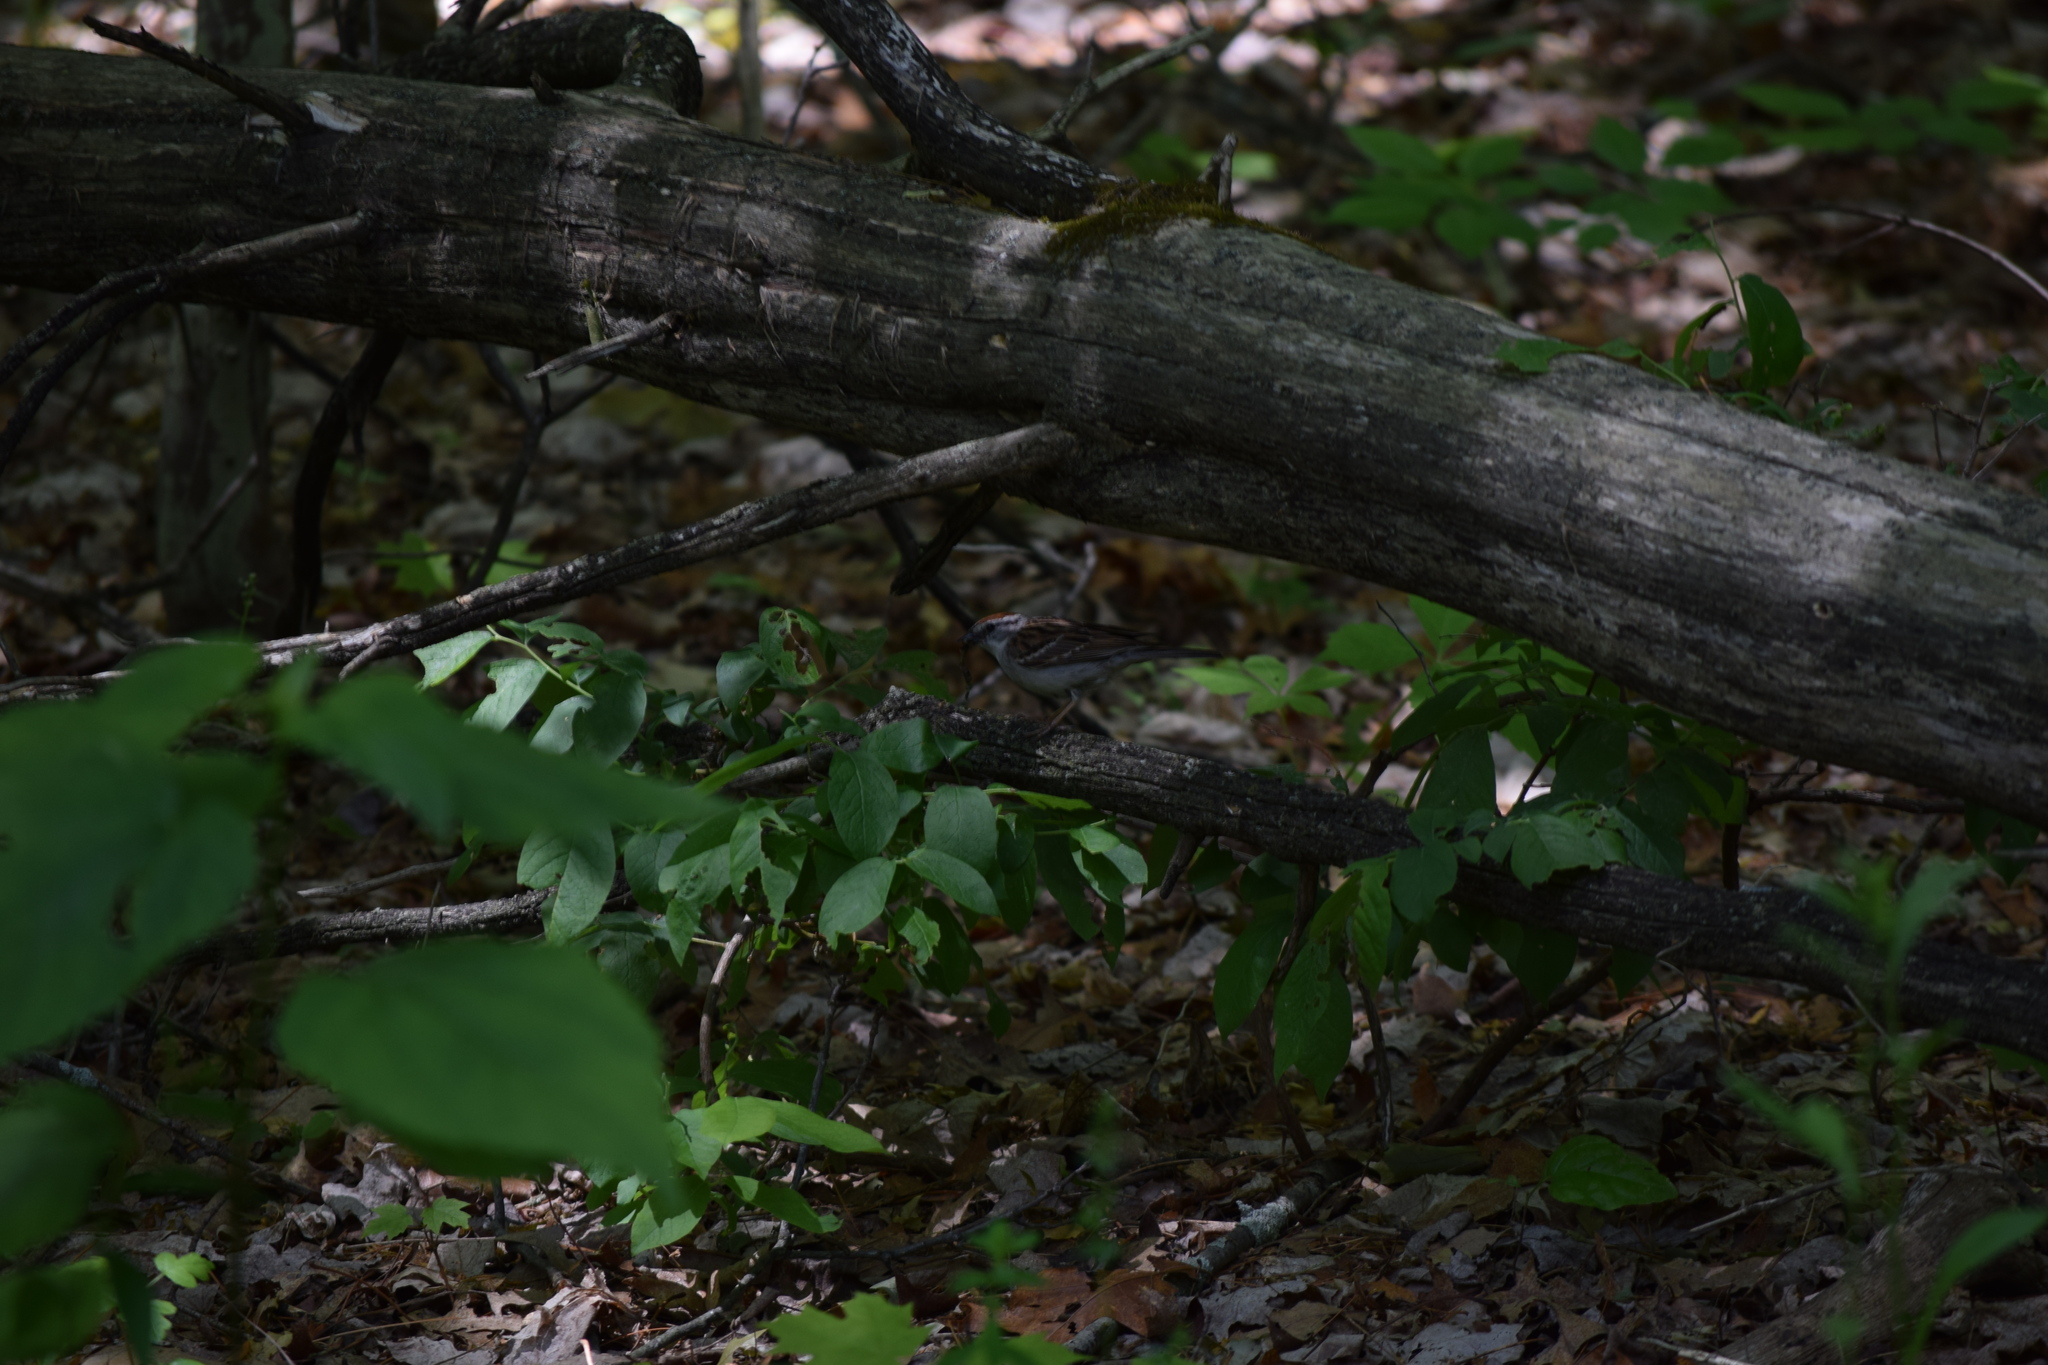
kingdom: Animalia
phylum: Chordata
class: Aves
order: Passeriformes
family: Passerellidae
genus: Spizella
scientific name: Spizella passerina
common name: Chipping sparrow
